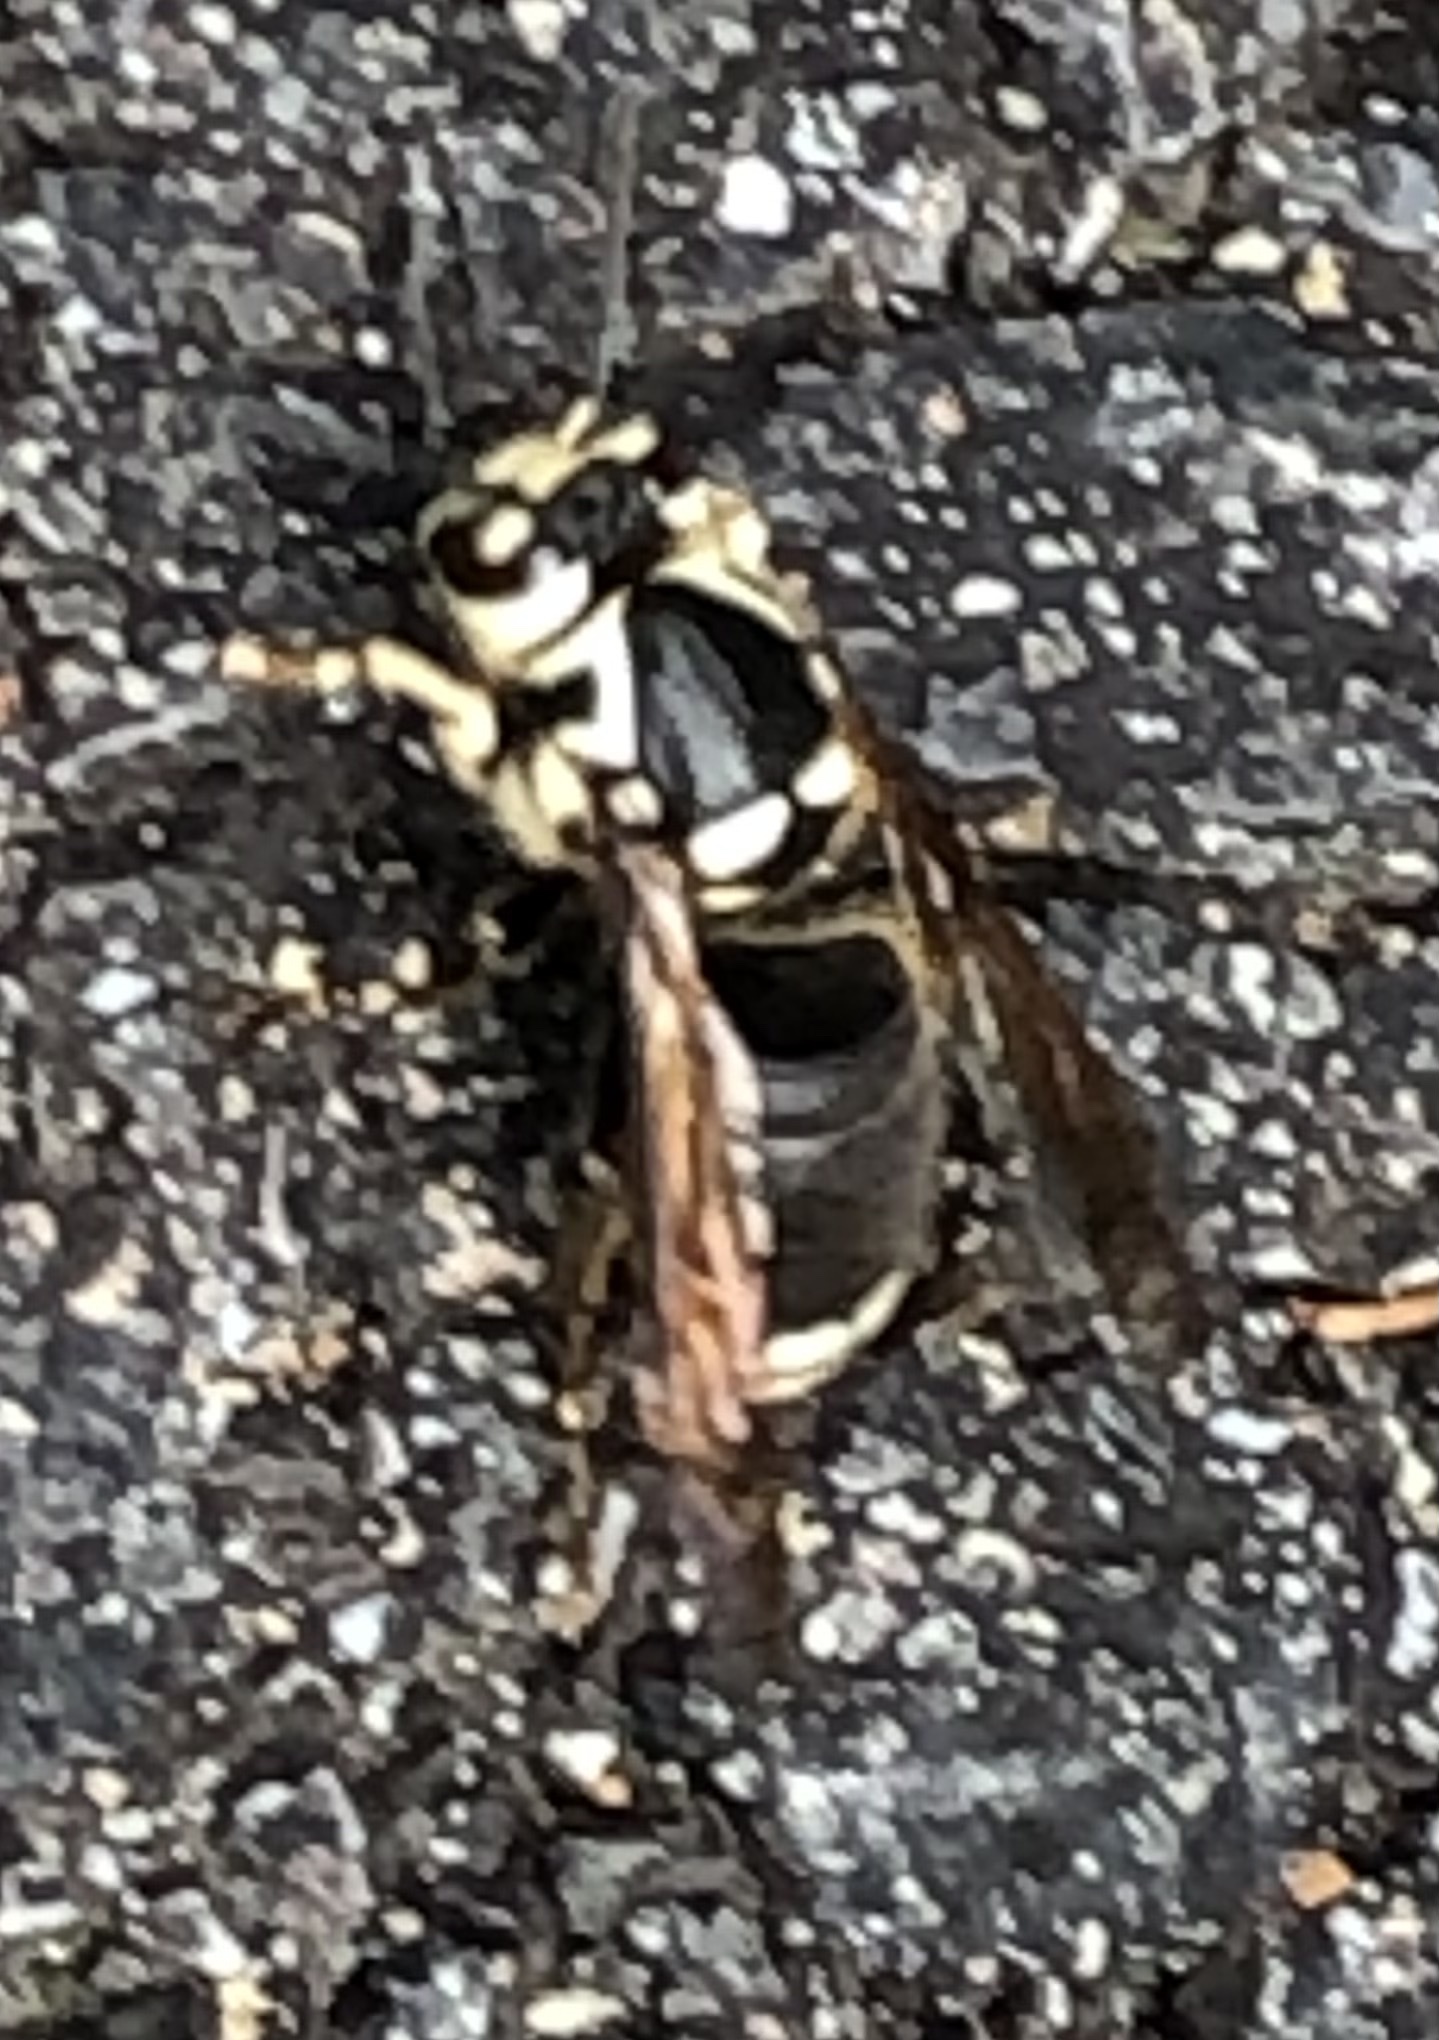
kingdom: Animalia
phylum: Arthropoda
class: Insecta
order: Hymenoptera
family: Vespidae
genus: Dolichovespula
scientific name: Dolichovespula maculata
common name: Bald-faced hornet
